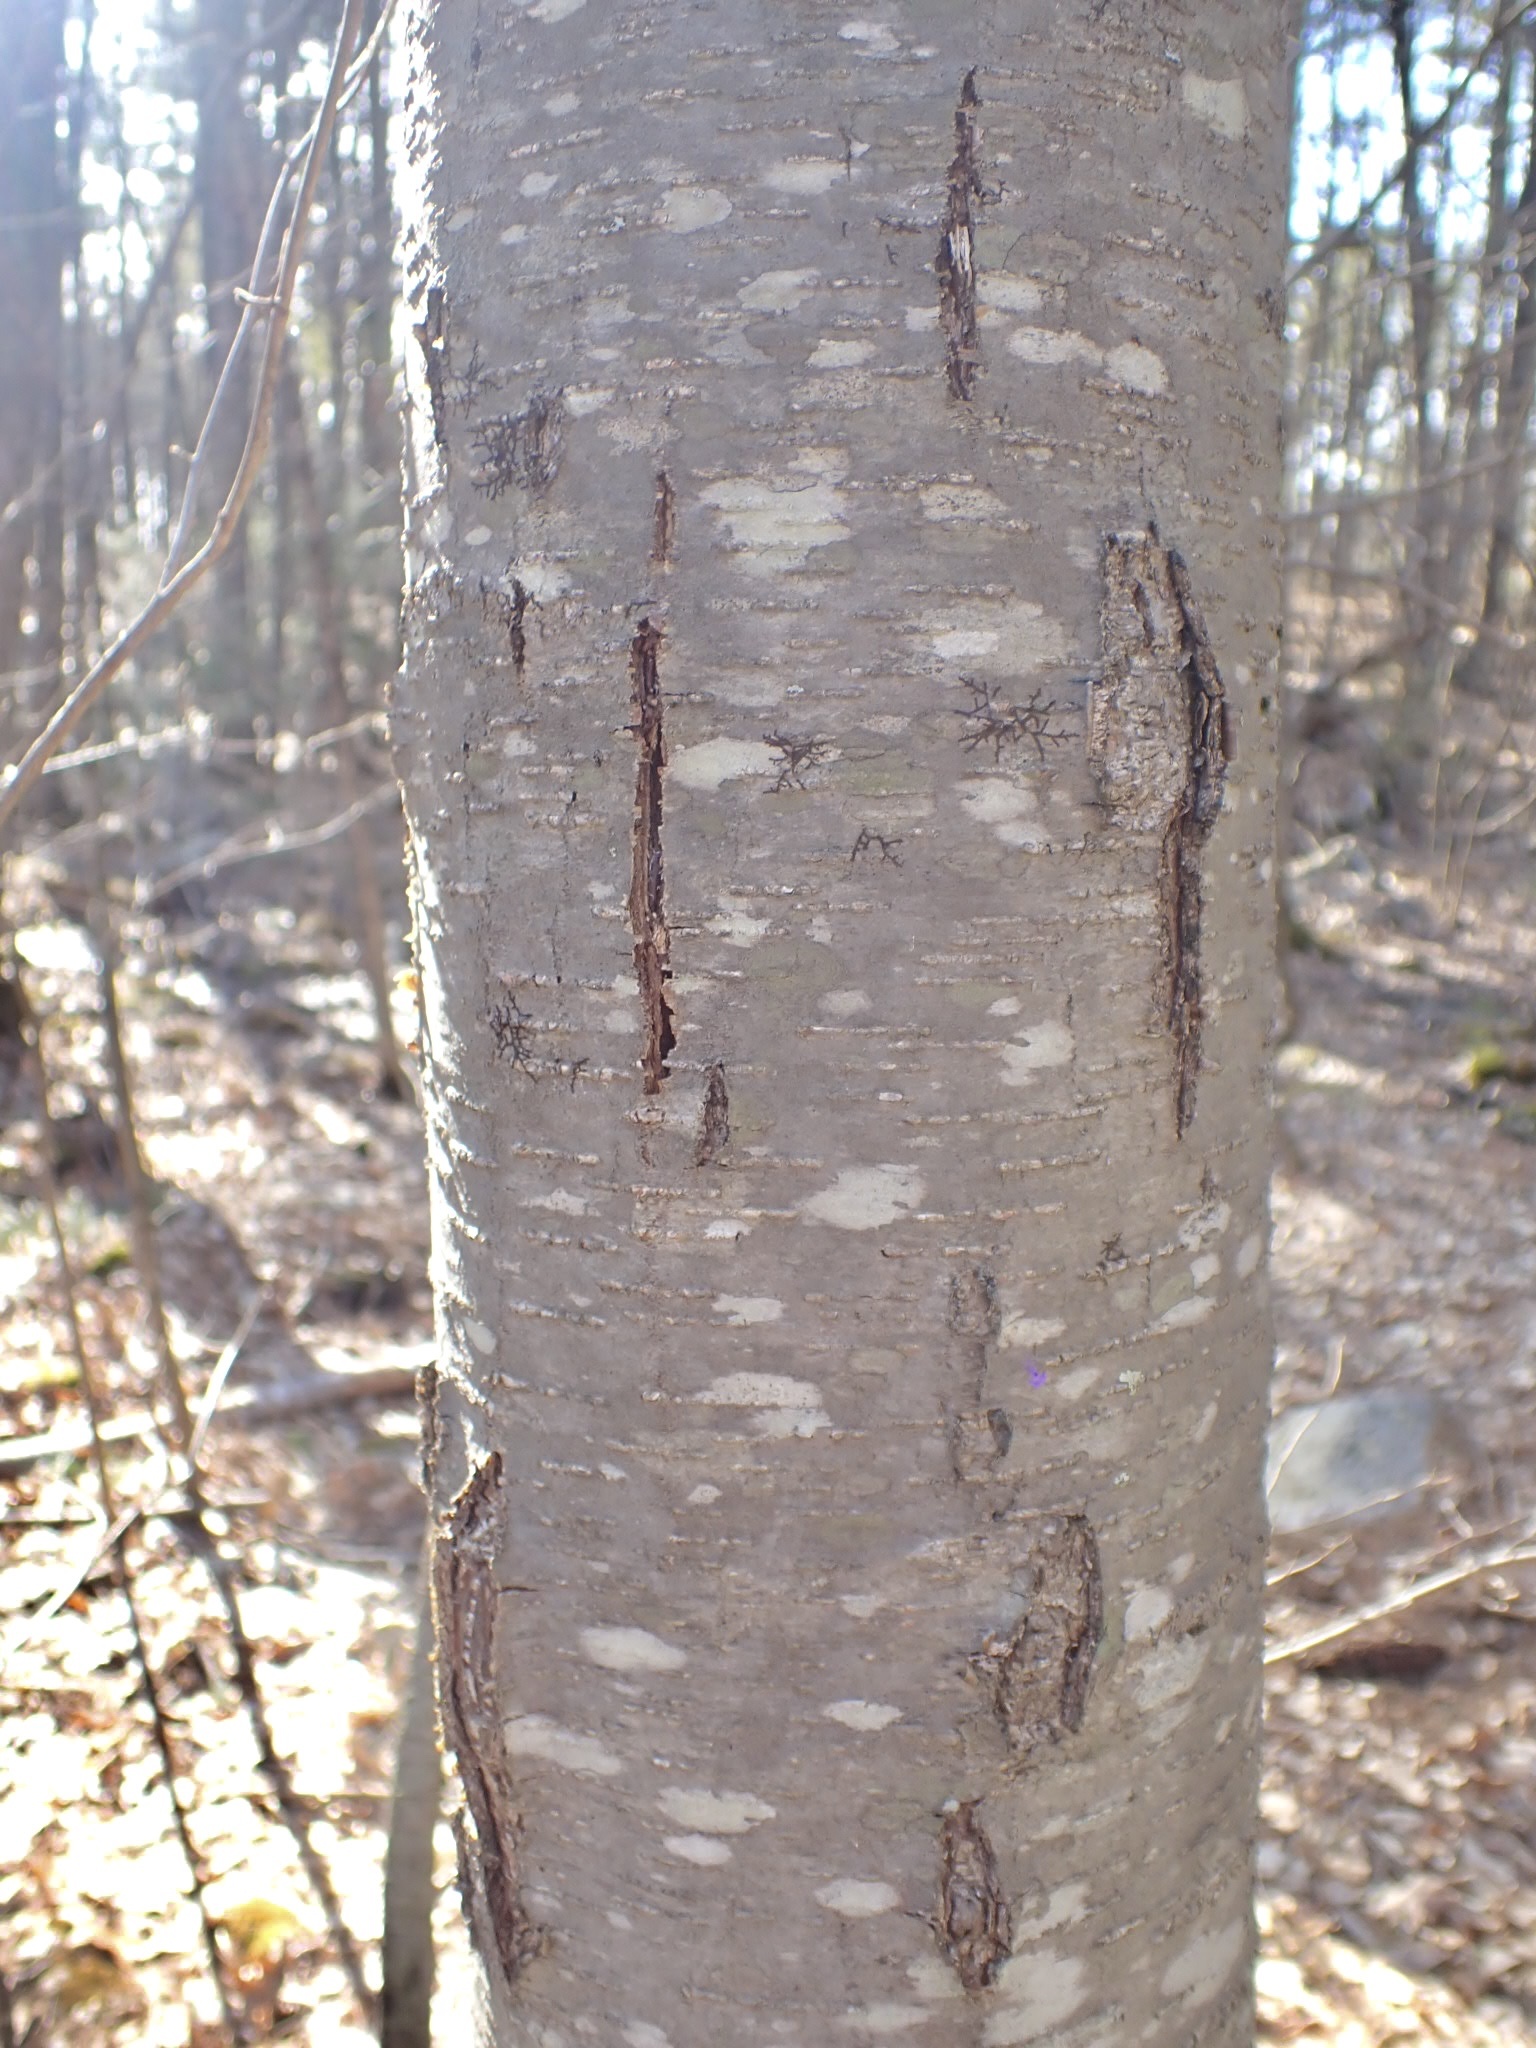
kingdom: Plantae
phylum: Tracheophyta
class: Magnoliopsida
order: Fagales
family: Betulaceae
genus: Betula
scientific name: Betula lenta
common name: Black birch
